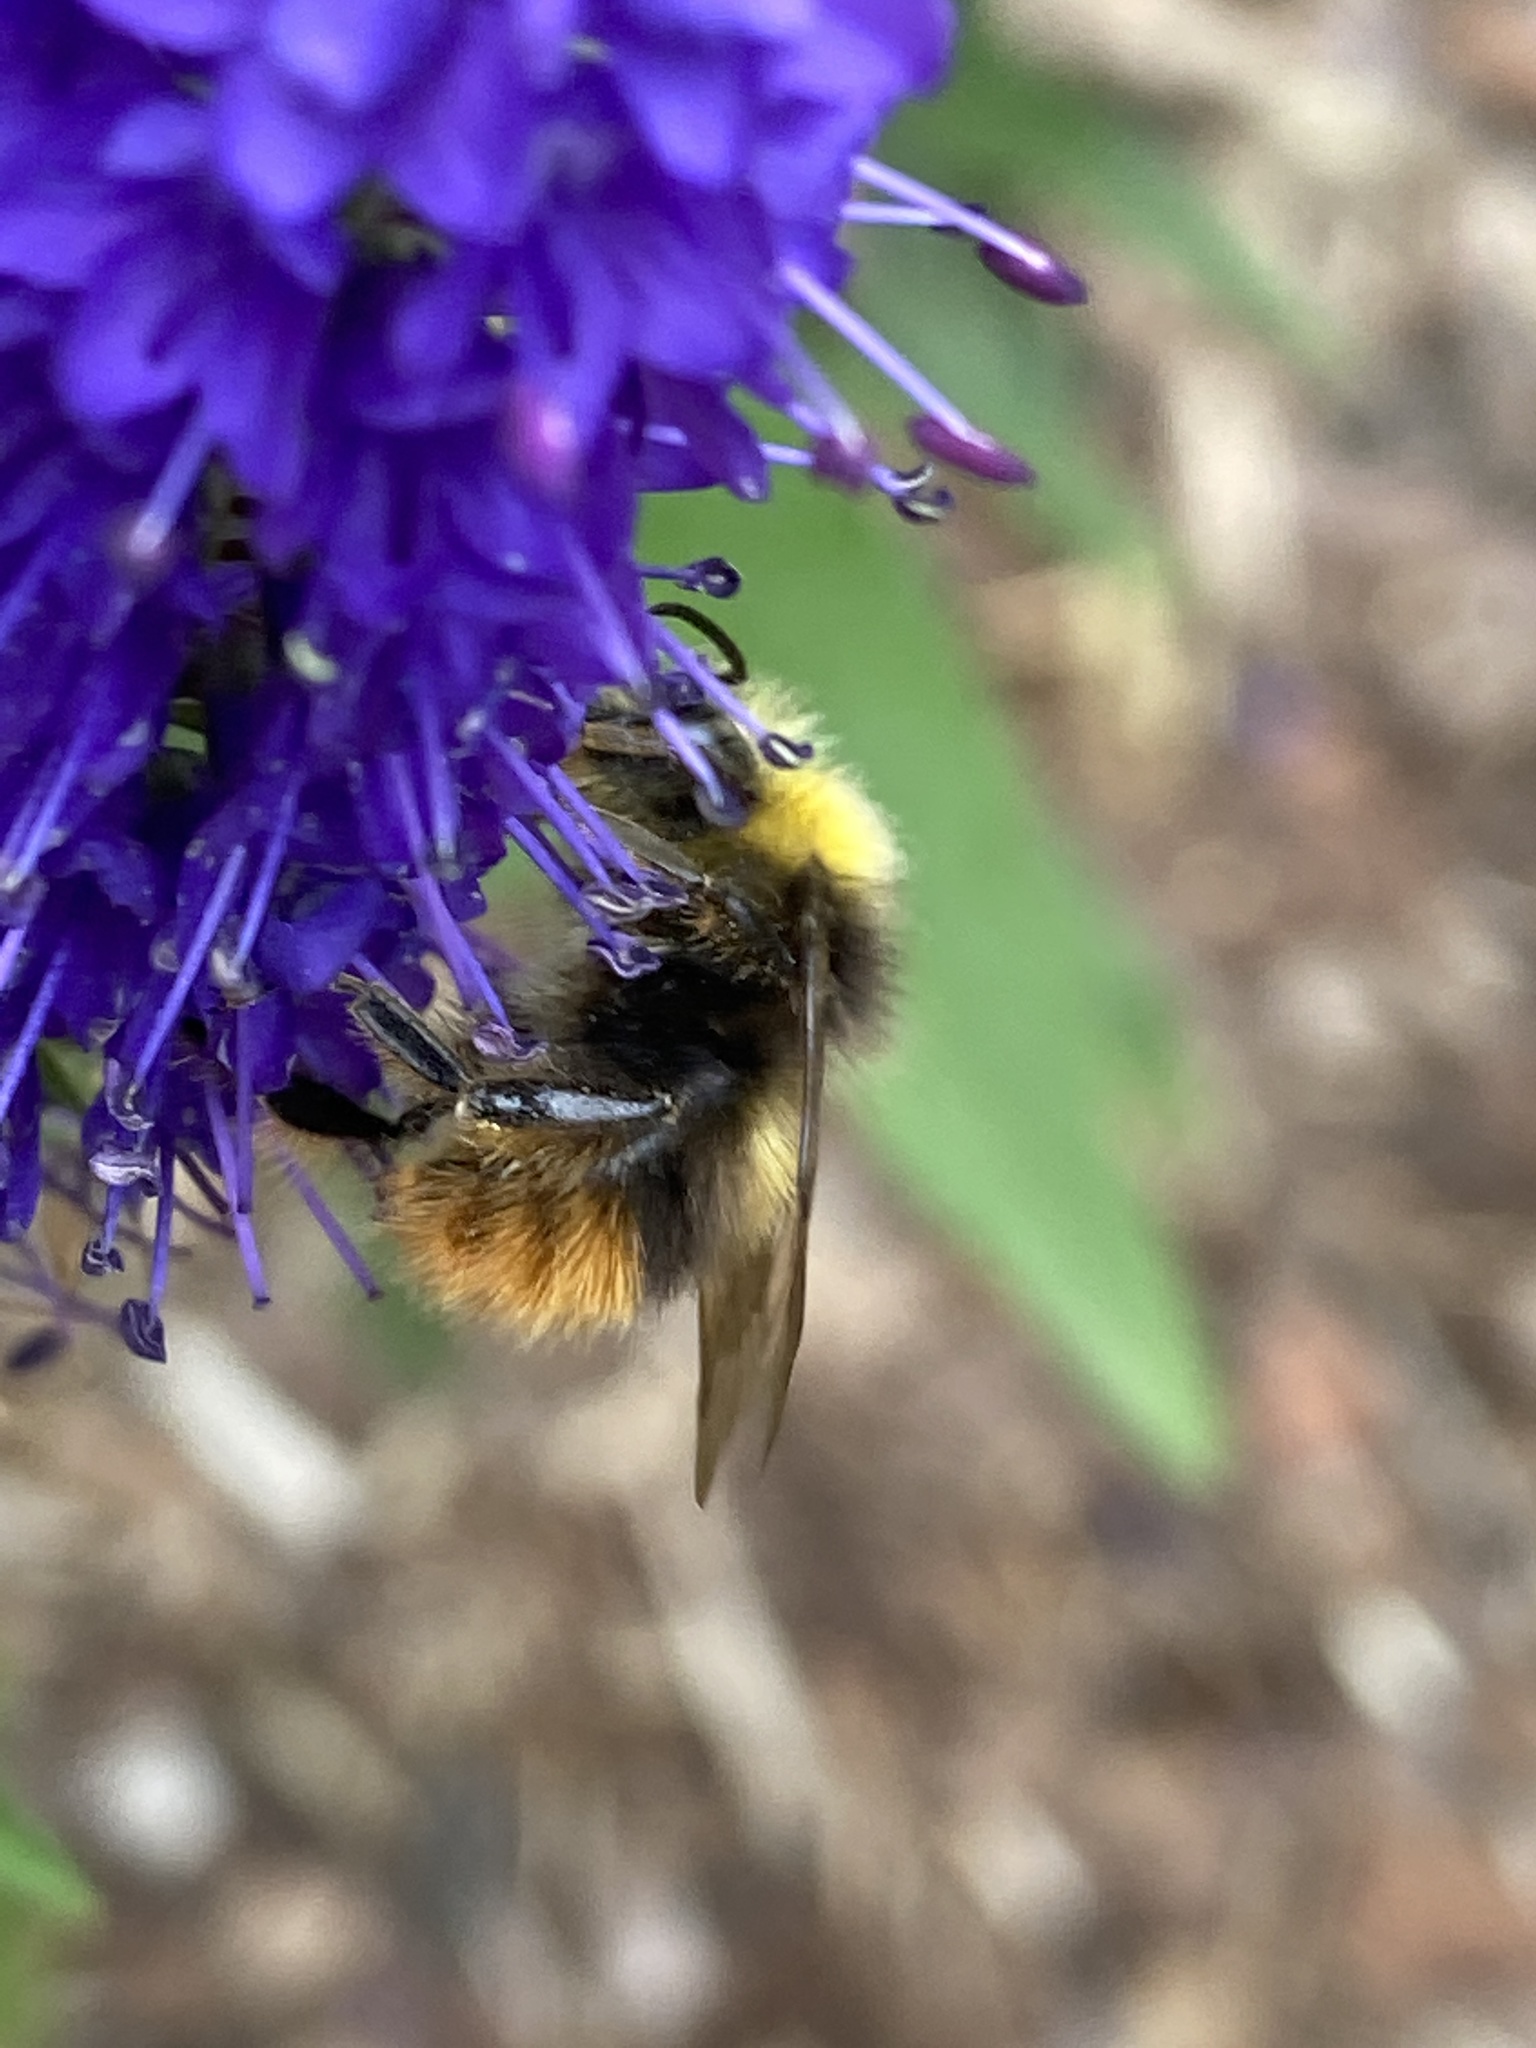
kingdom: Animalia
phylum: Arthropoda
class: Insecta
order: Hymenoptera
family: Apidae
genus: Bombus
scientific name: Bombus pratorum
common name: Early humble-bee
